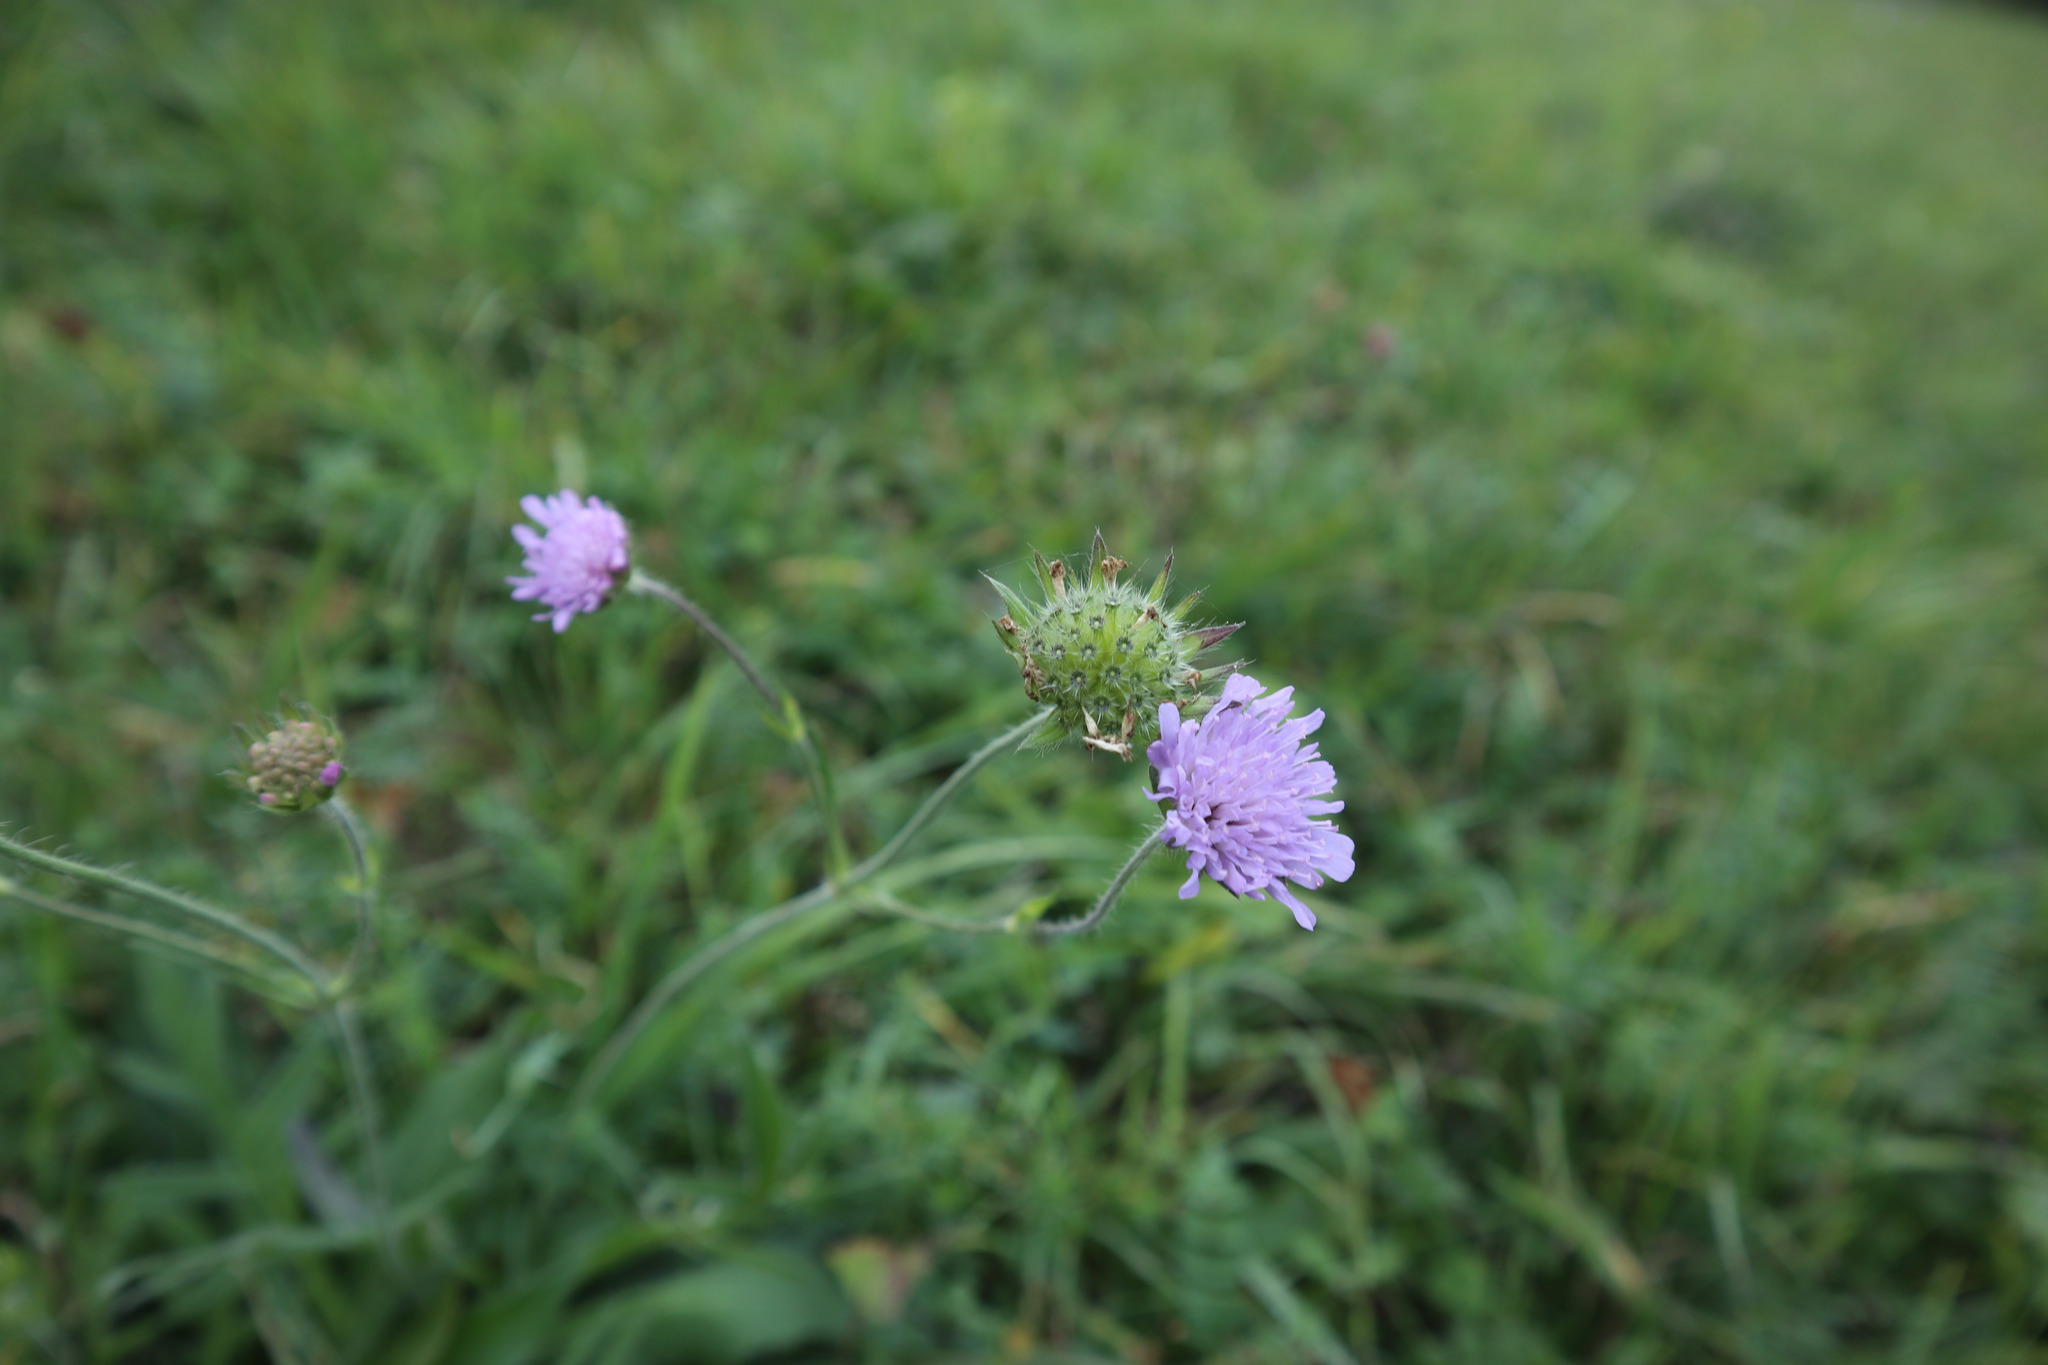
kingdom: Plantae
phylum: Tracheophyta
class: Magnoliopsida
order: Dipsacales
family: Caprifoliaceae
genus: Knautia
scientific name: Knautia arvensis
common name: Field scabiosa
